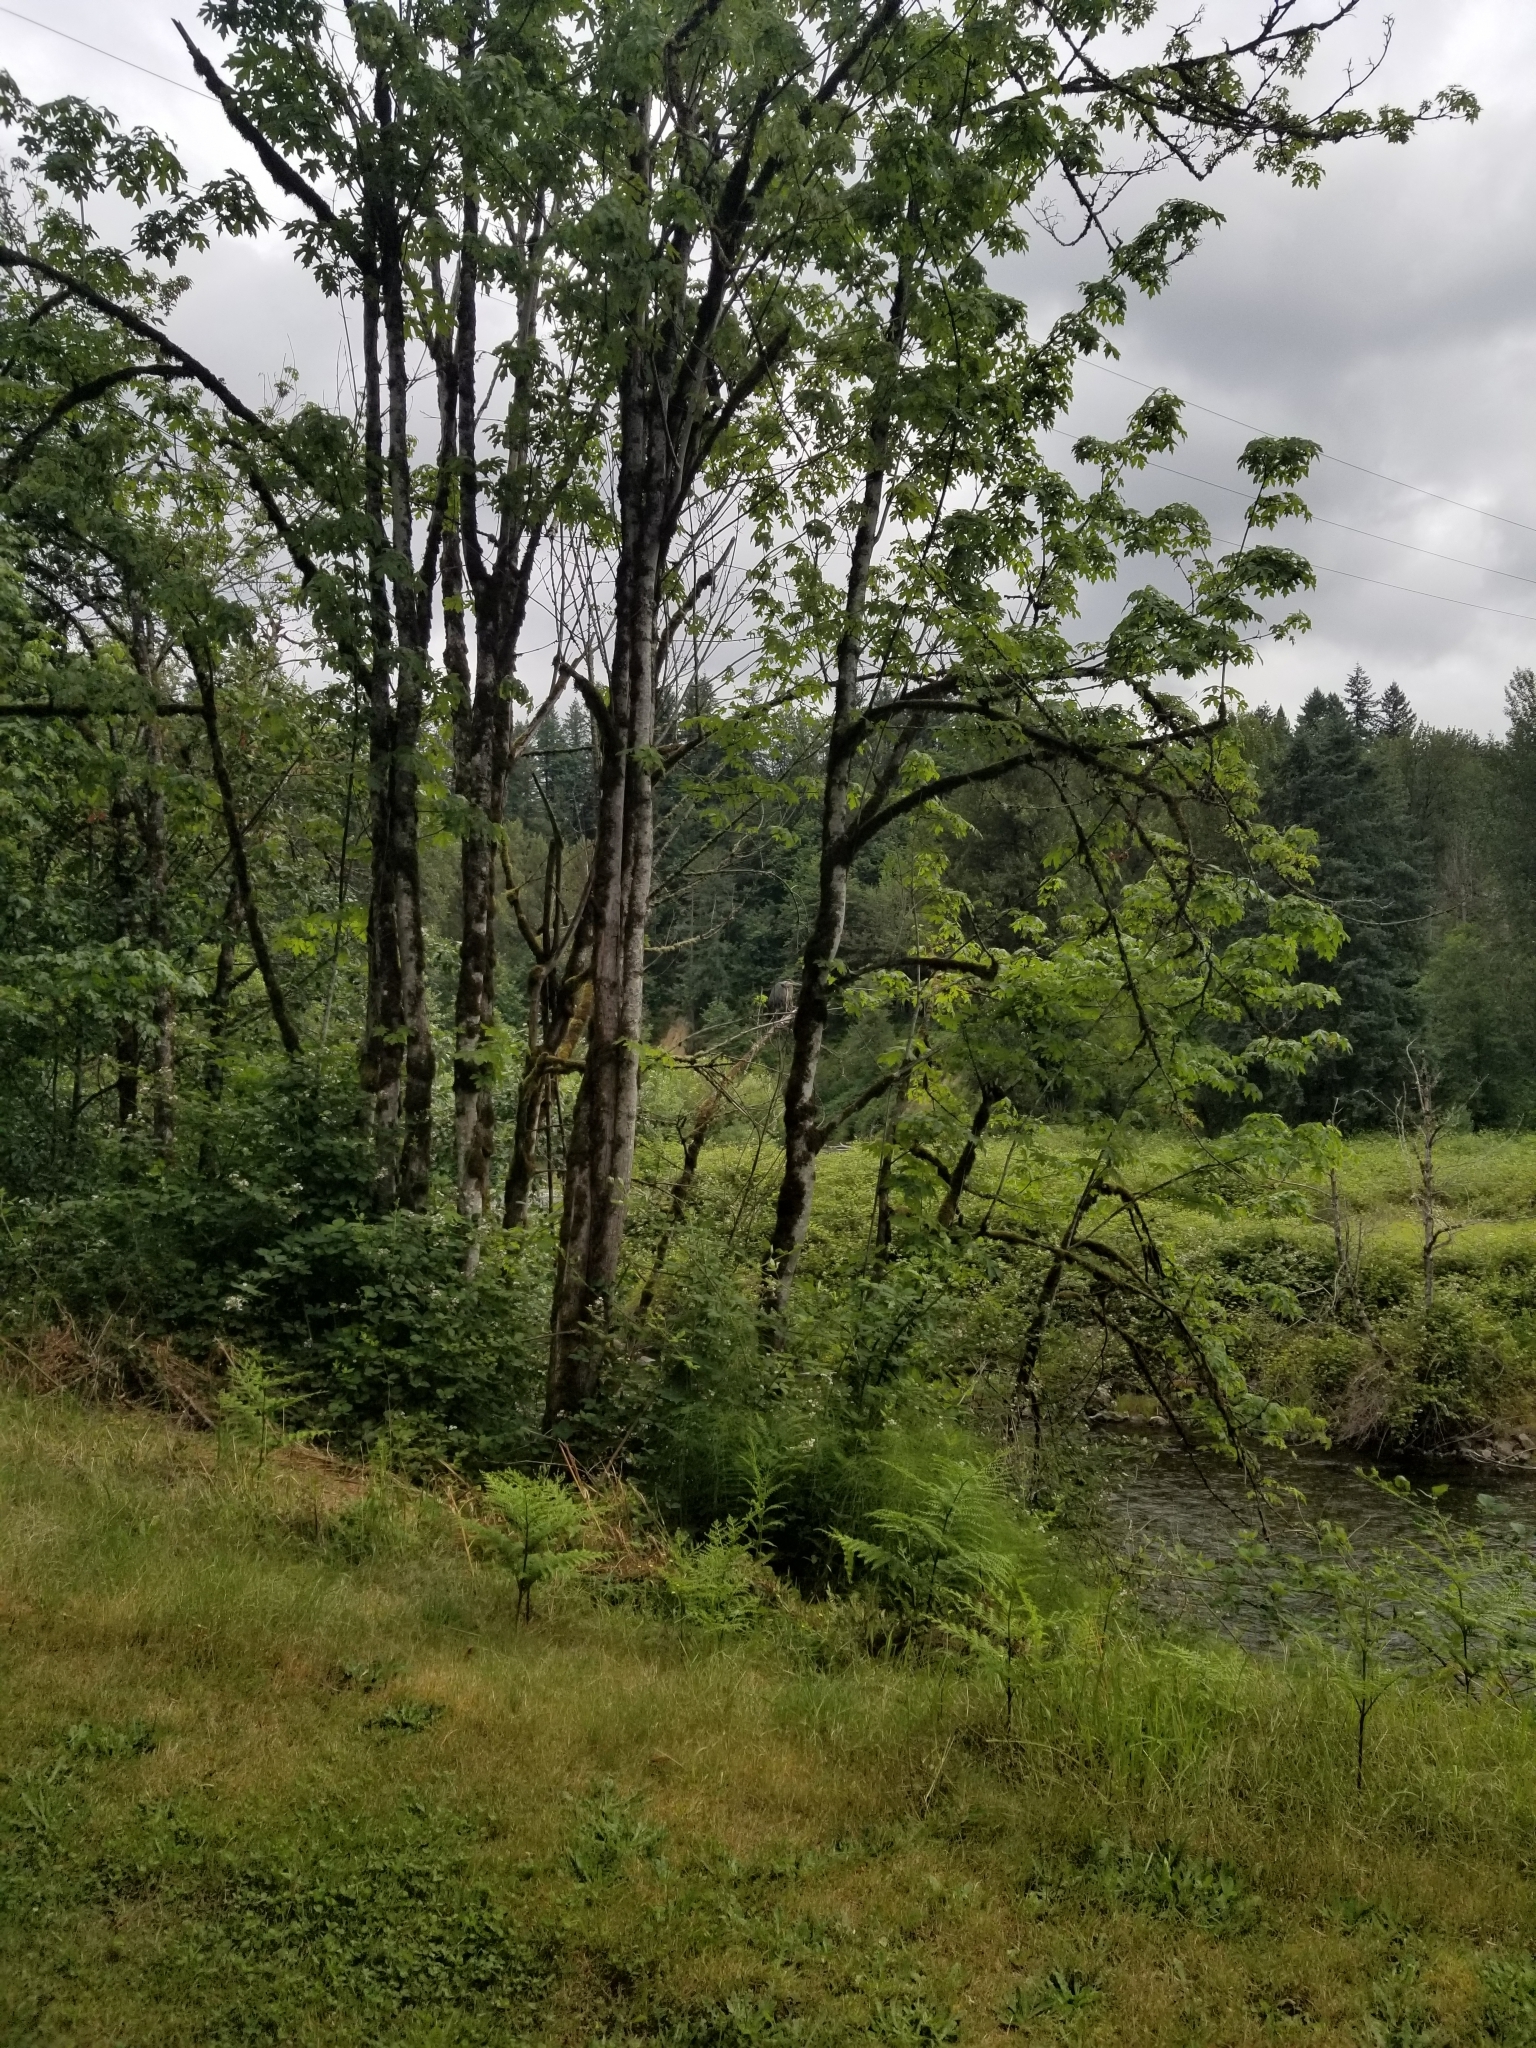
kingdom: Animalia
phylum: Chordata
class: Aves
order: Pelecaniformes
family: Ardeidae
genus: Ardea
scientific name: Ardea herodias
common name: Great blue heron
